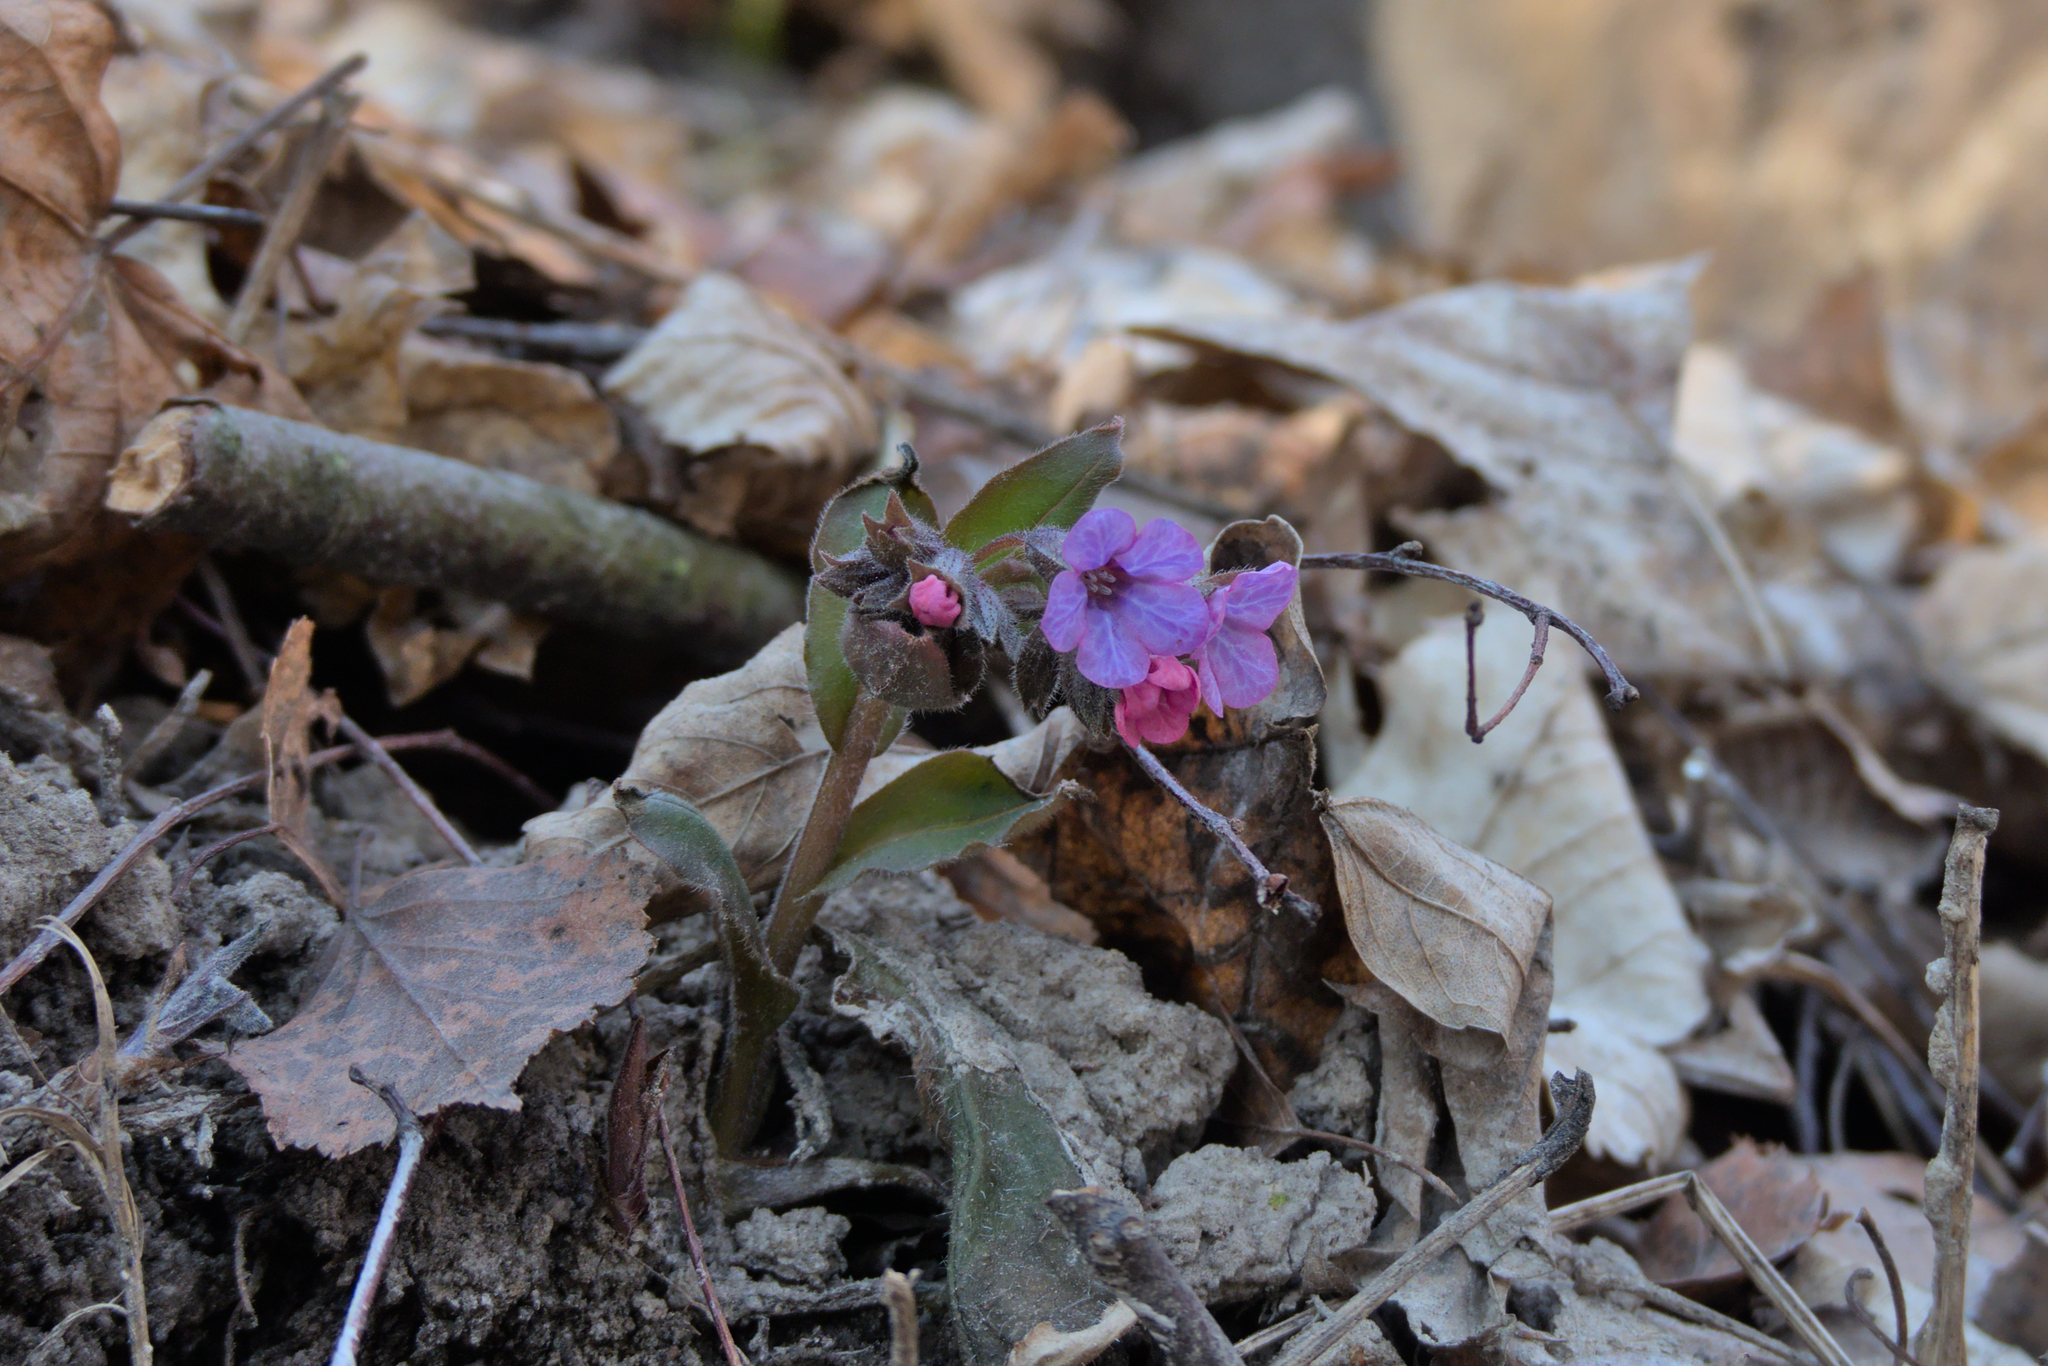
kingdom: Plantae
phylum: Tracheophyta
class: Magnoliopsida
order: Boraginales
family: Boraginaceae
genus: Pulmonaria
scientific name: Pulmonaria obscura
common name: Suffolk lungwort
